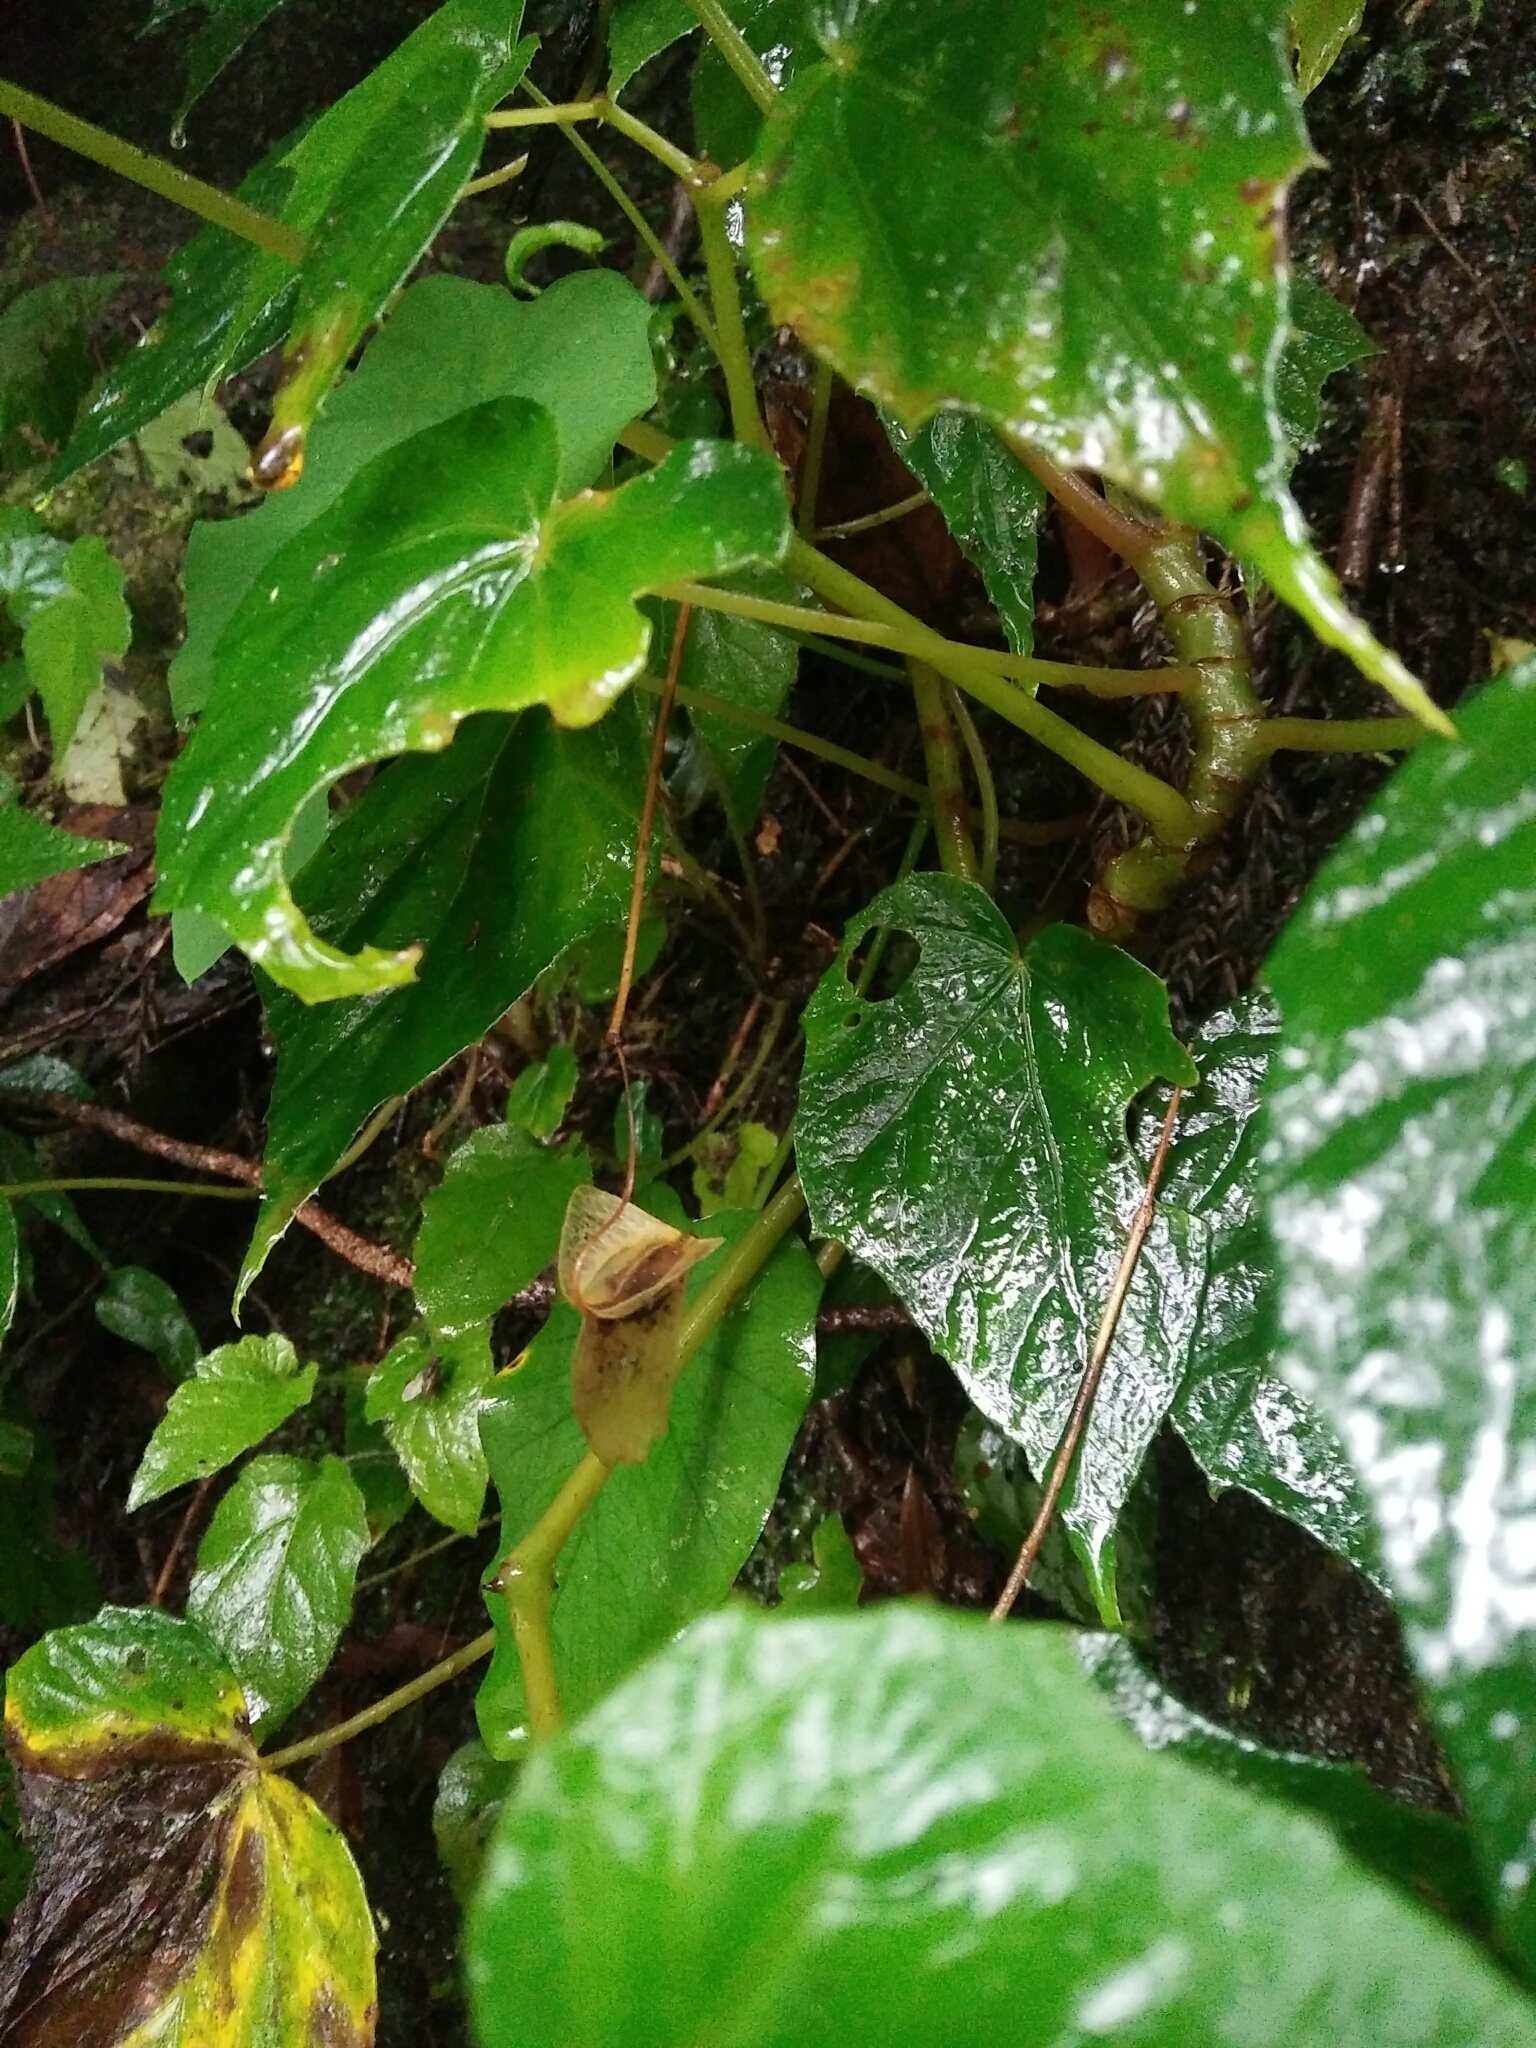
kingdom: Plantae
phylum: Tracheophyta
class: Magnoliopsida
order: Cucurbitales
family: Begoniaceae
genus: Begonia
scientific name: Begonia formosana
